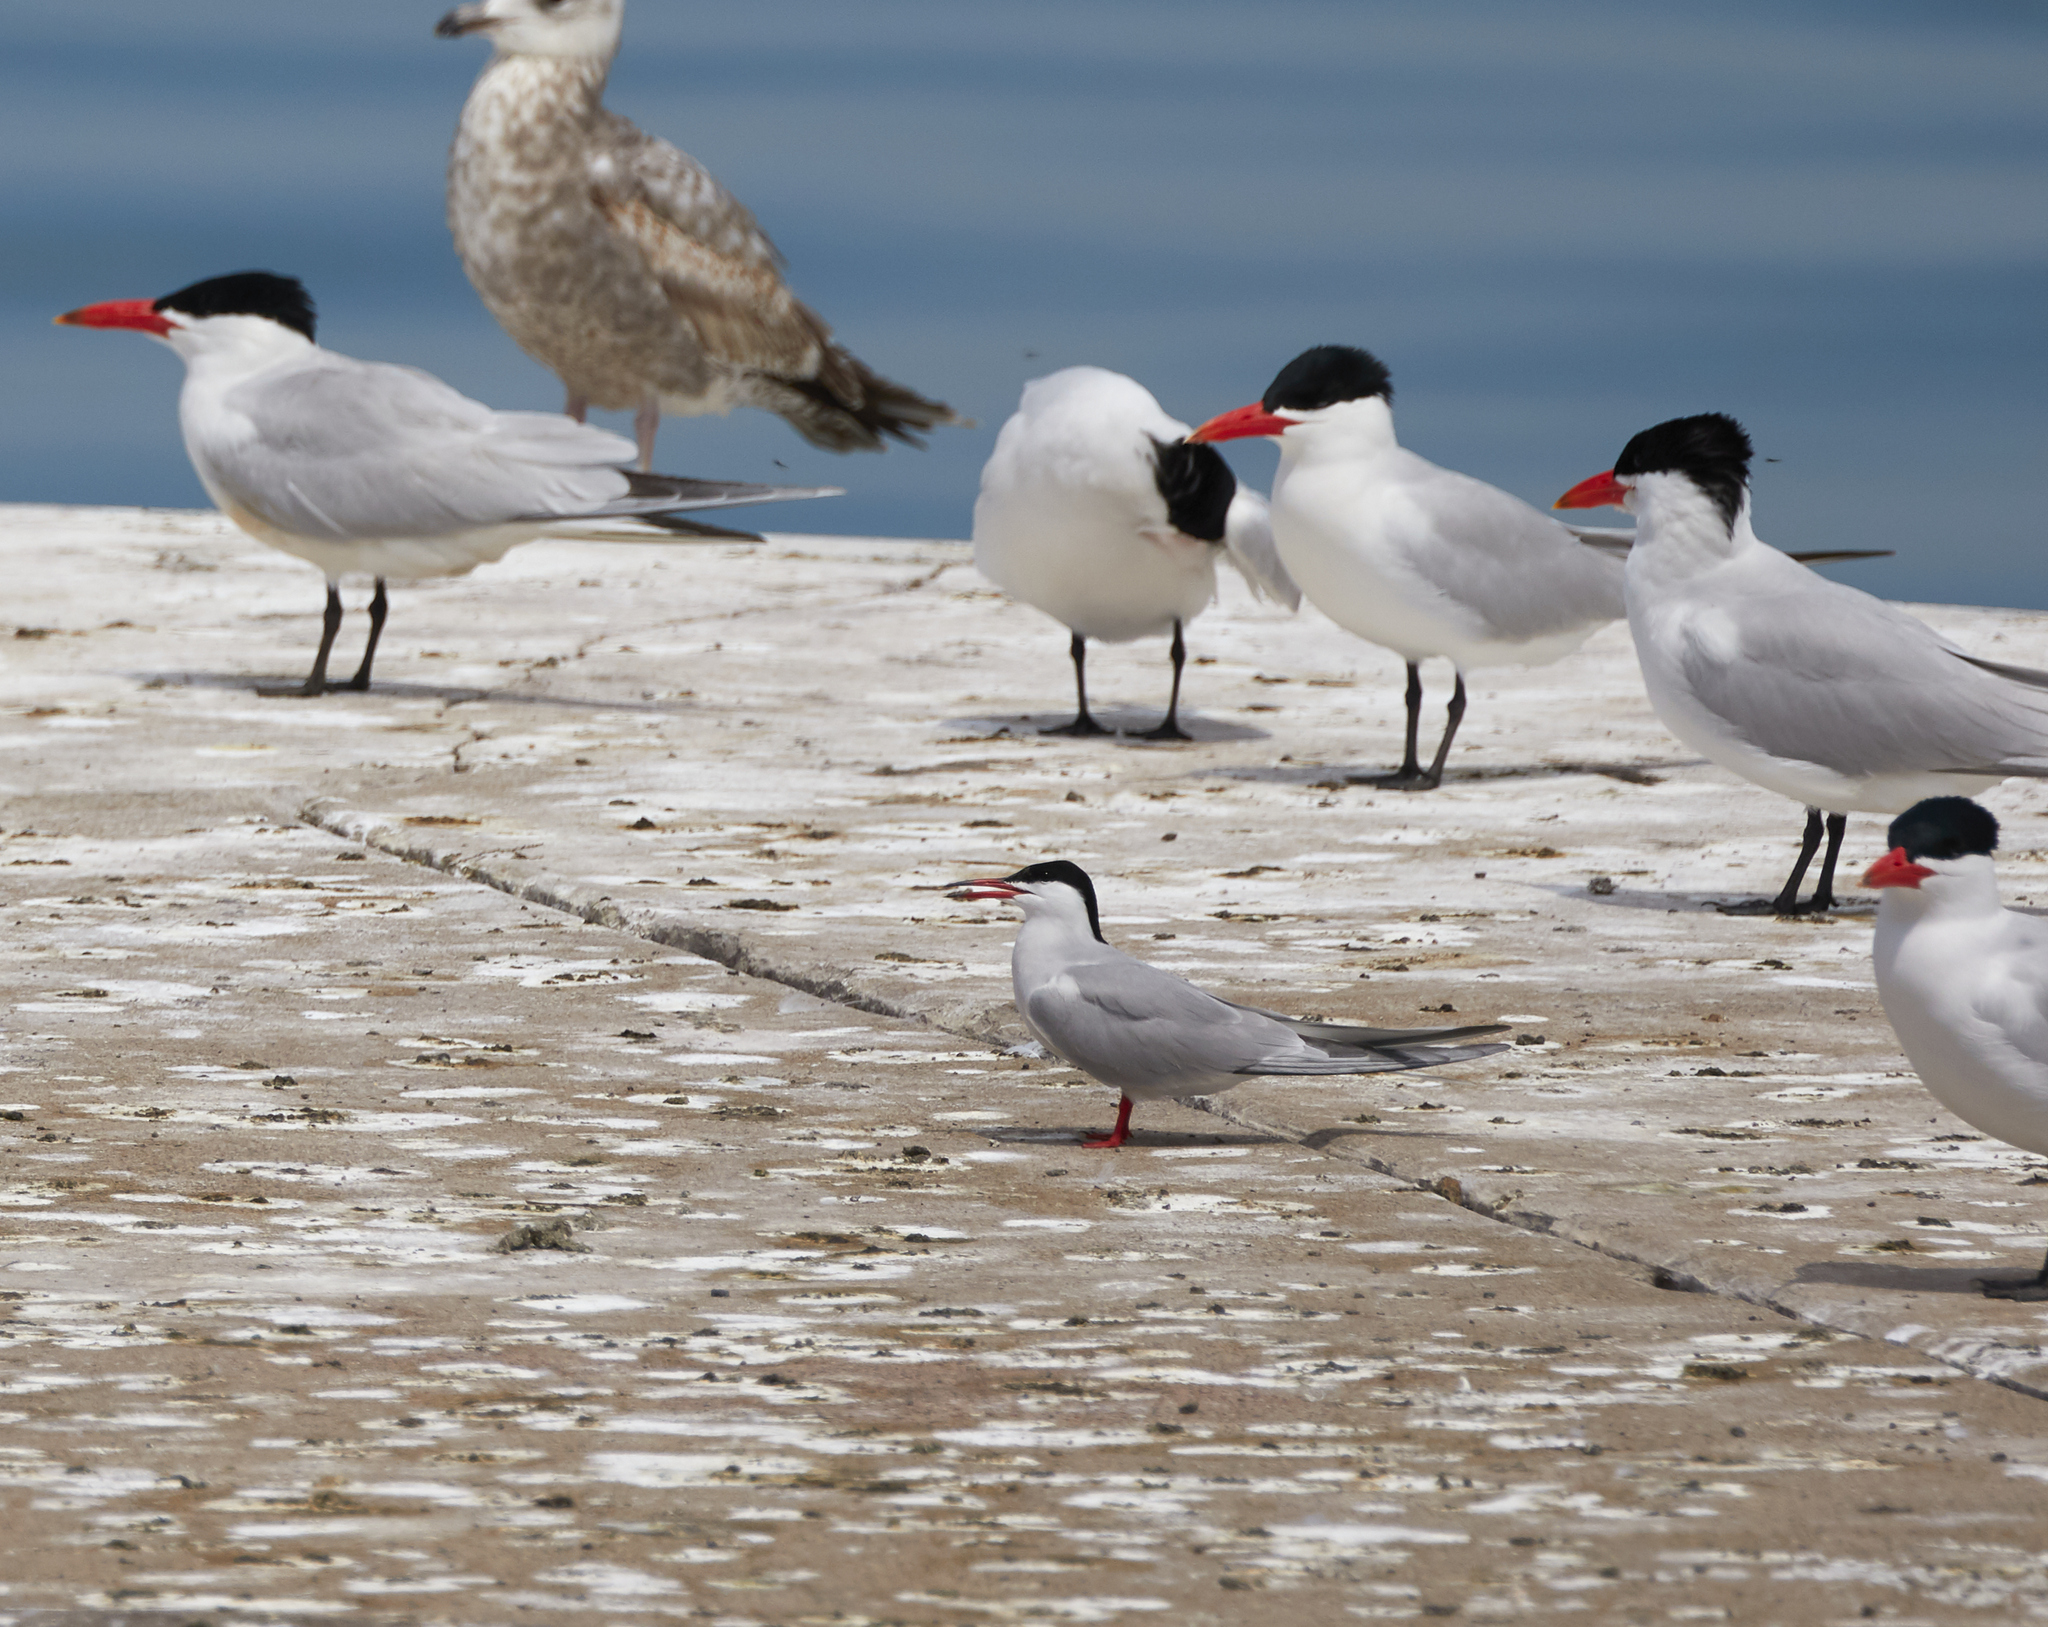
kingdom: Animalia
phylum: Chordata
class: Aves
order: Charadriiformes
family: Laridae
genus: Sterna
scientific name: Sterna hirundo
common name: Common tern
